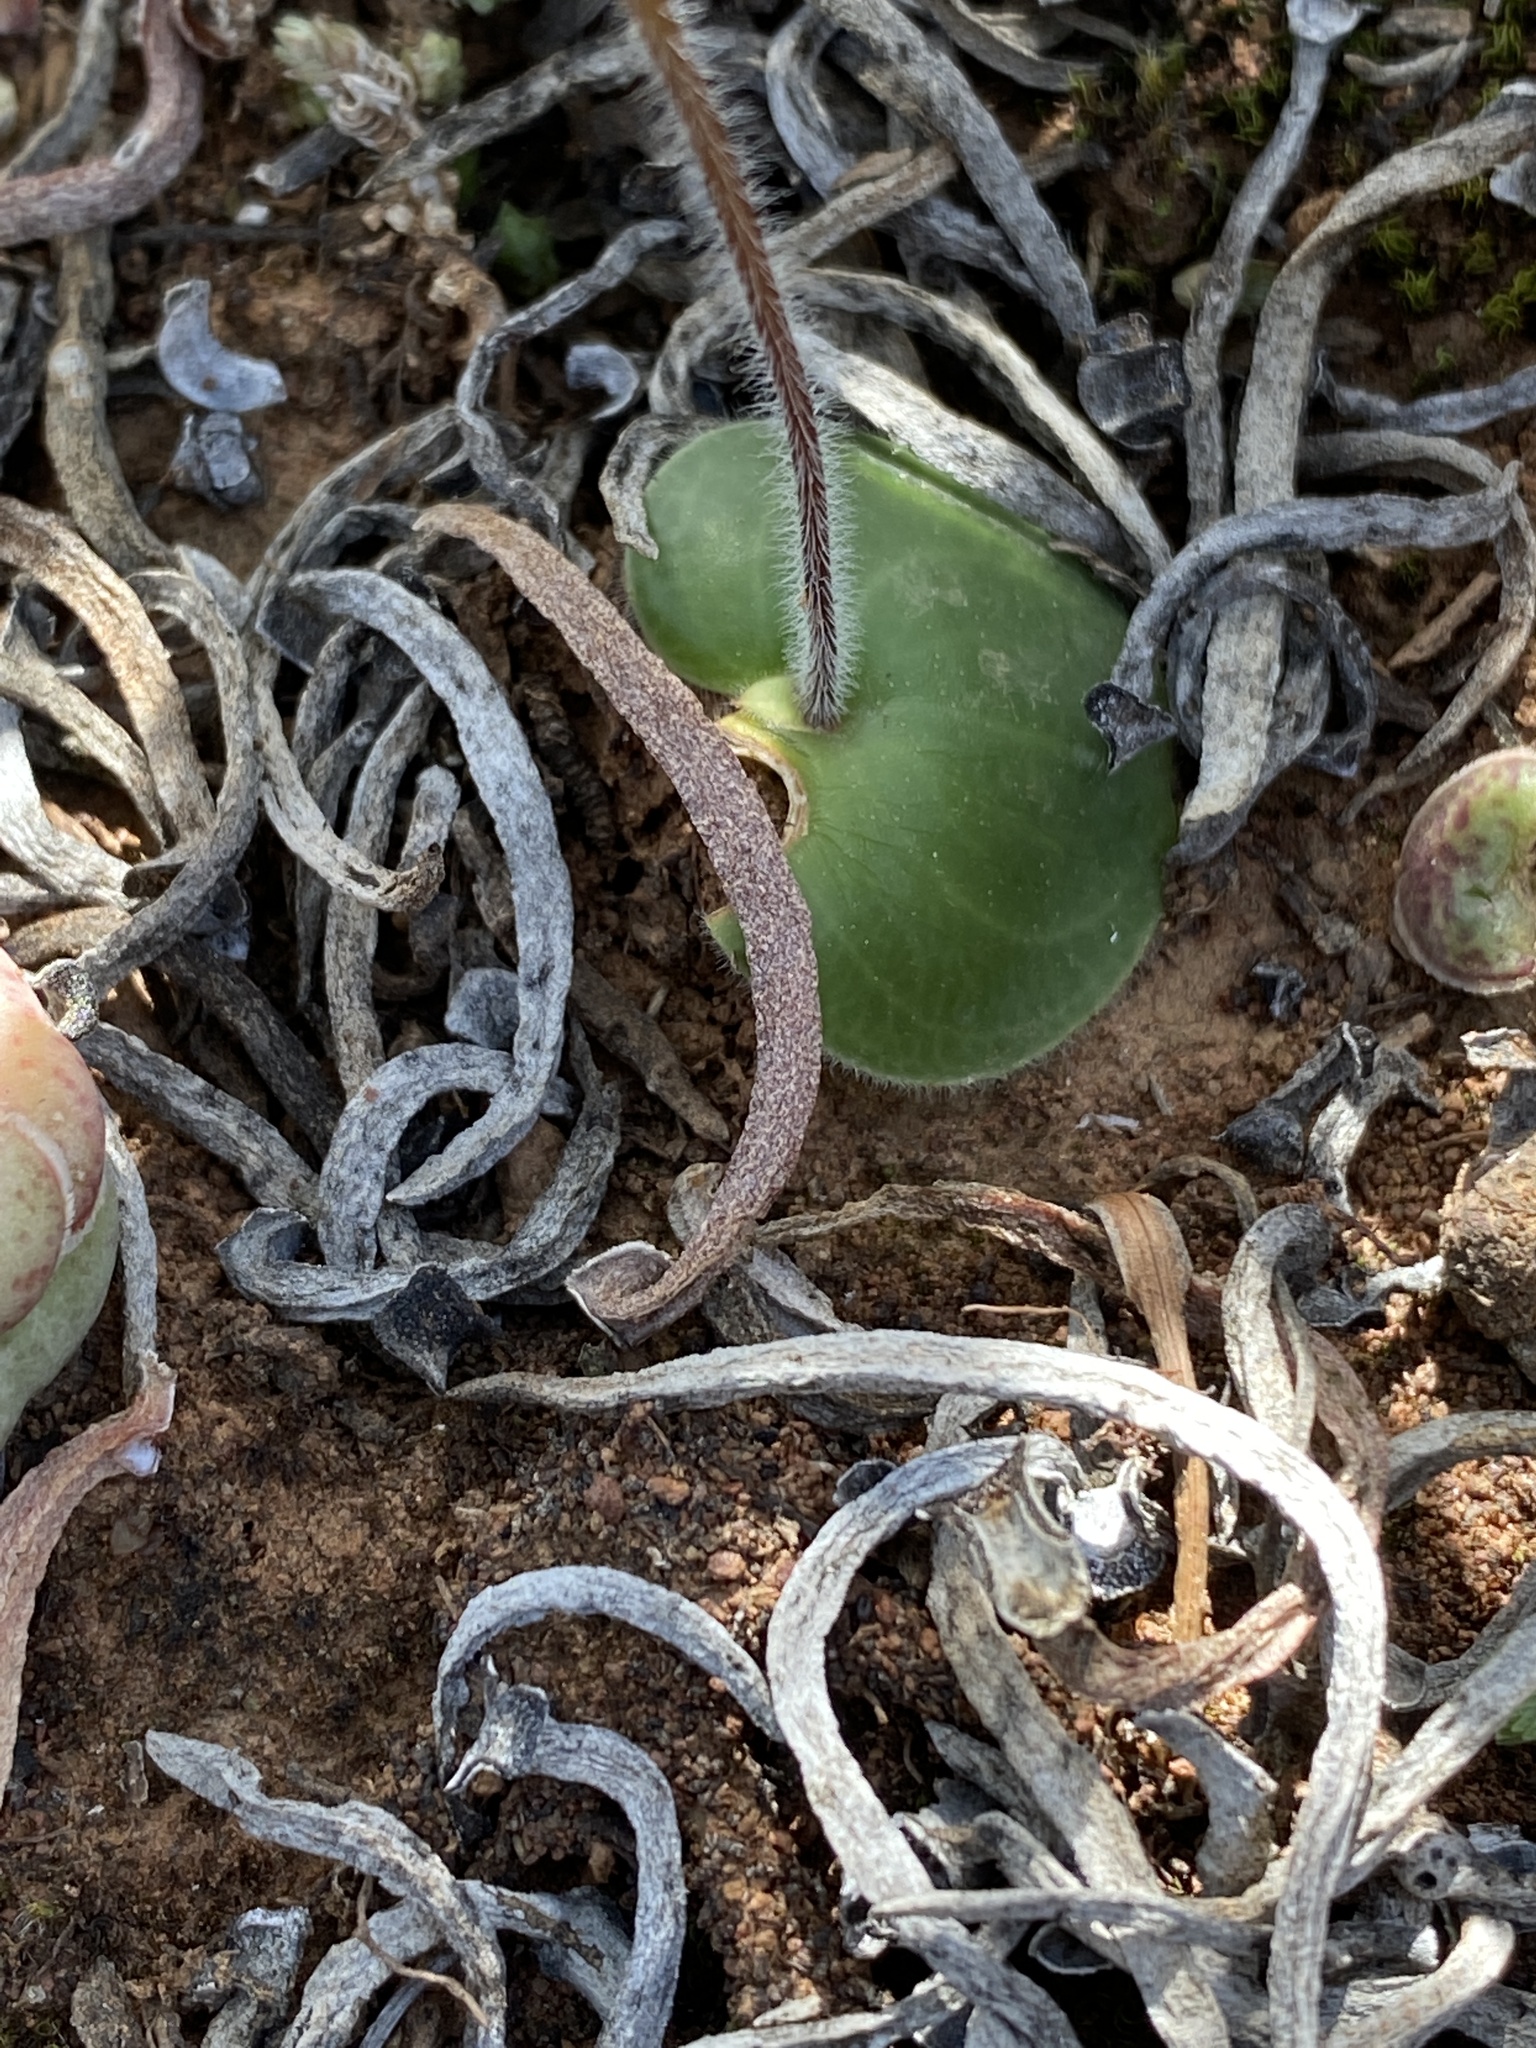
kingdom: Plantae
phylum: Tracheophyta
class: Liliopsida
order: Asparagales
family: Orchidaceae
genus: Holothrix
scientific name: Holothrix etheliae
